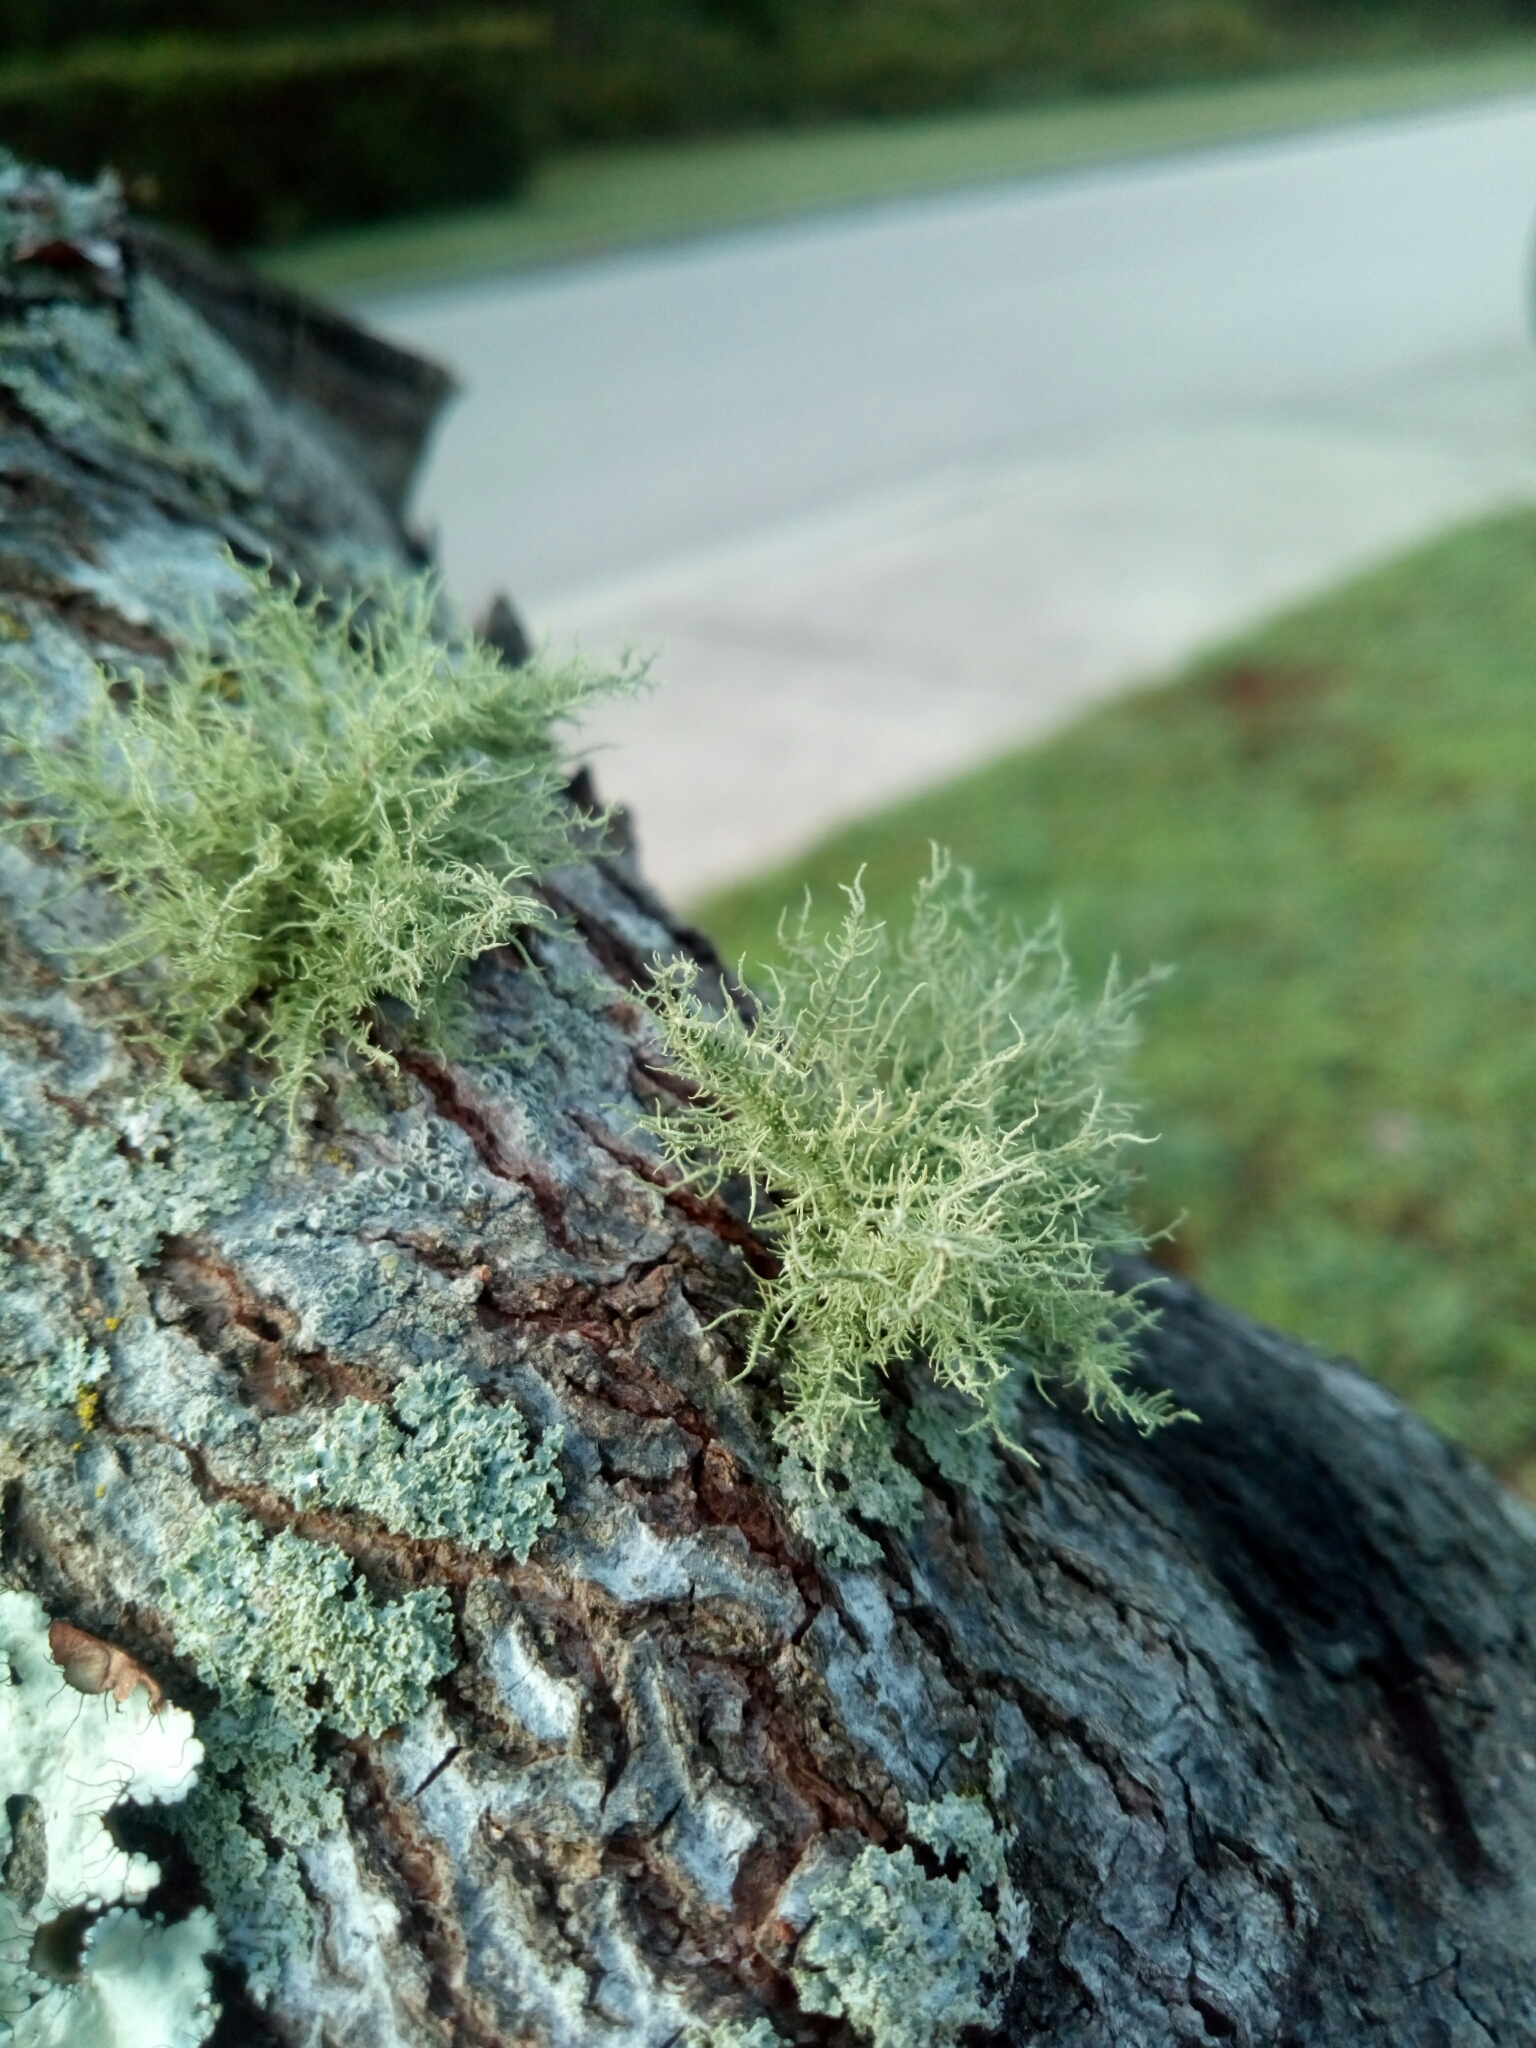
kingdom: Fungi
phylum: Ascomycota
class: Lecanoromycetes
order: Lecanorales
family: Parmeliaceae
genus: Usnea
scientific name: Usnea strigosa
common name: Bushy beard lichen
